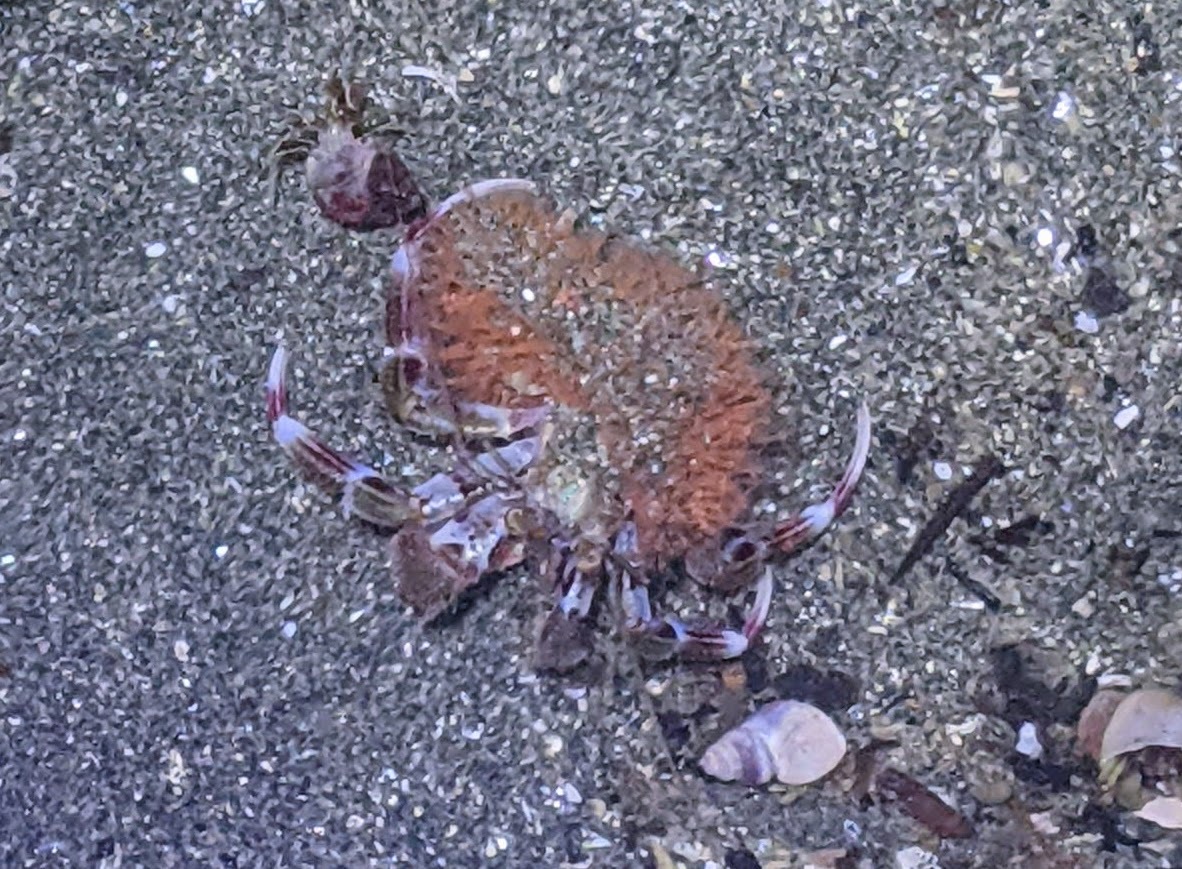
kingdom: Animalia
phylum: Arthropoda
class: Malacostraca
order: Decapoda
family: Paguridae
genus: Pagurus
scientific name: Pagurus ochotensis
